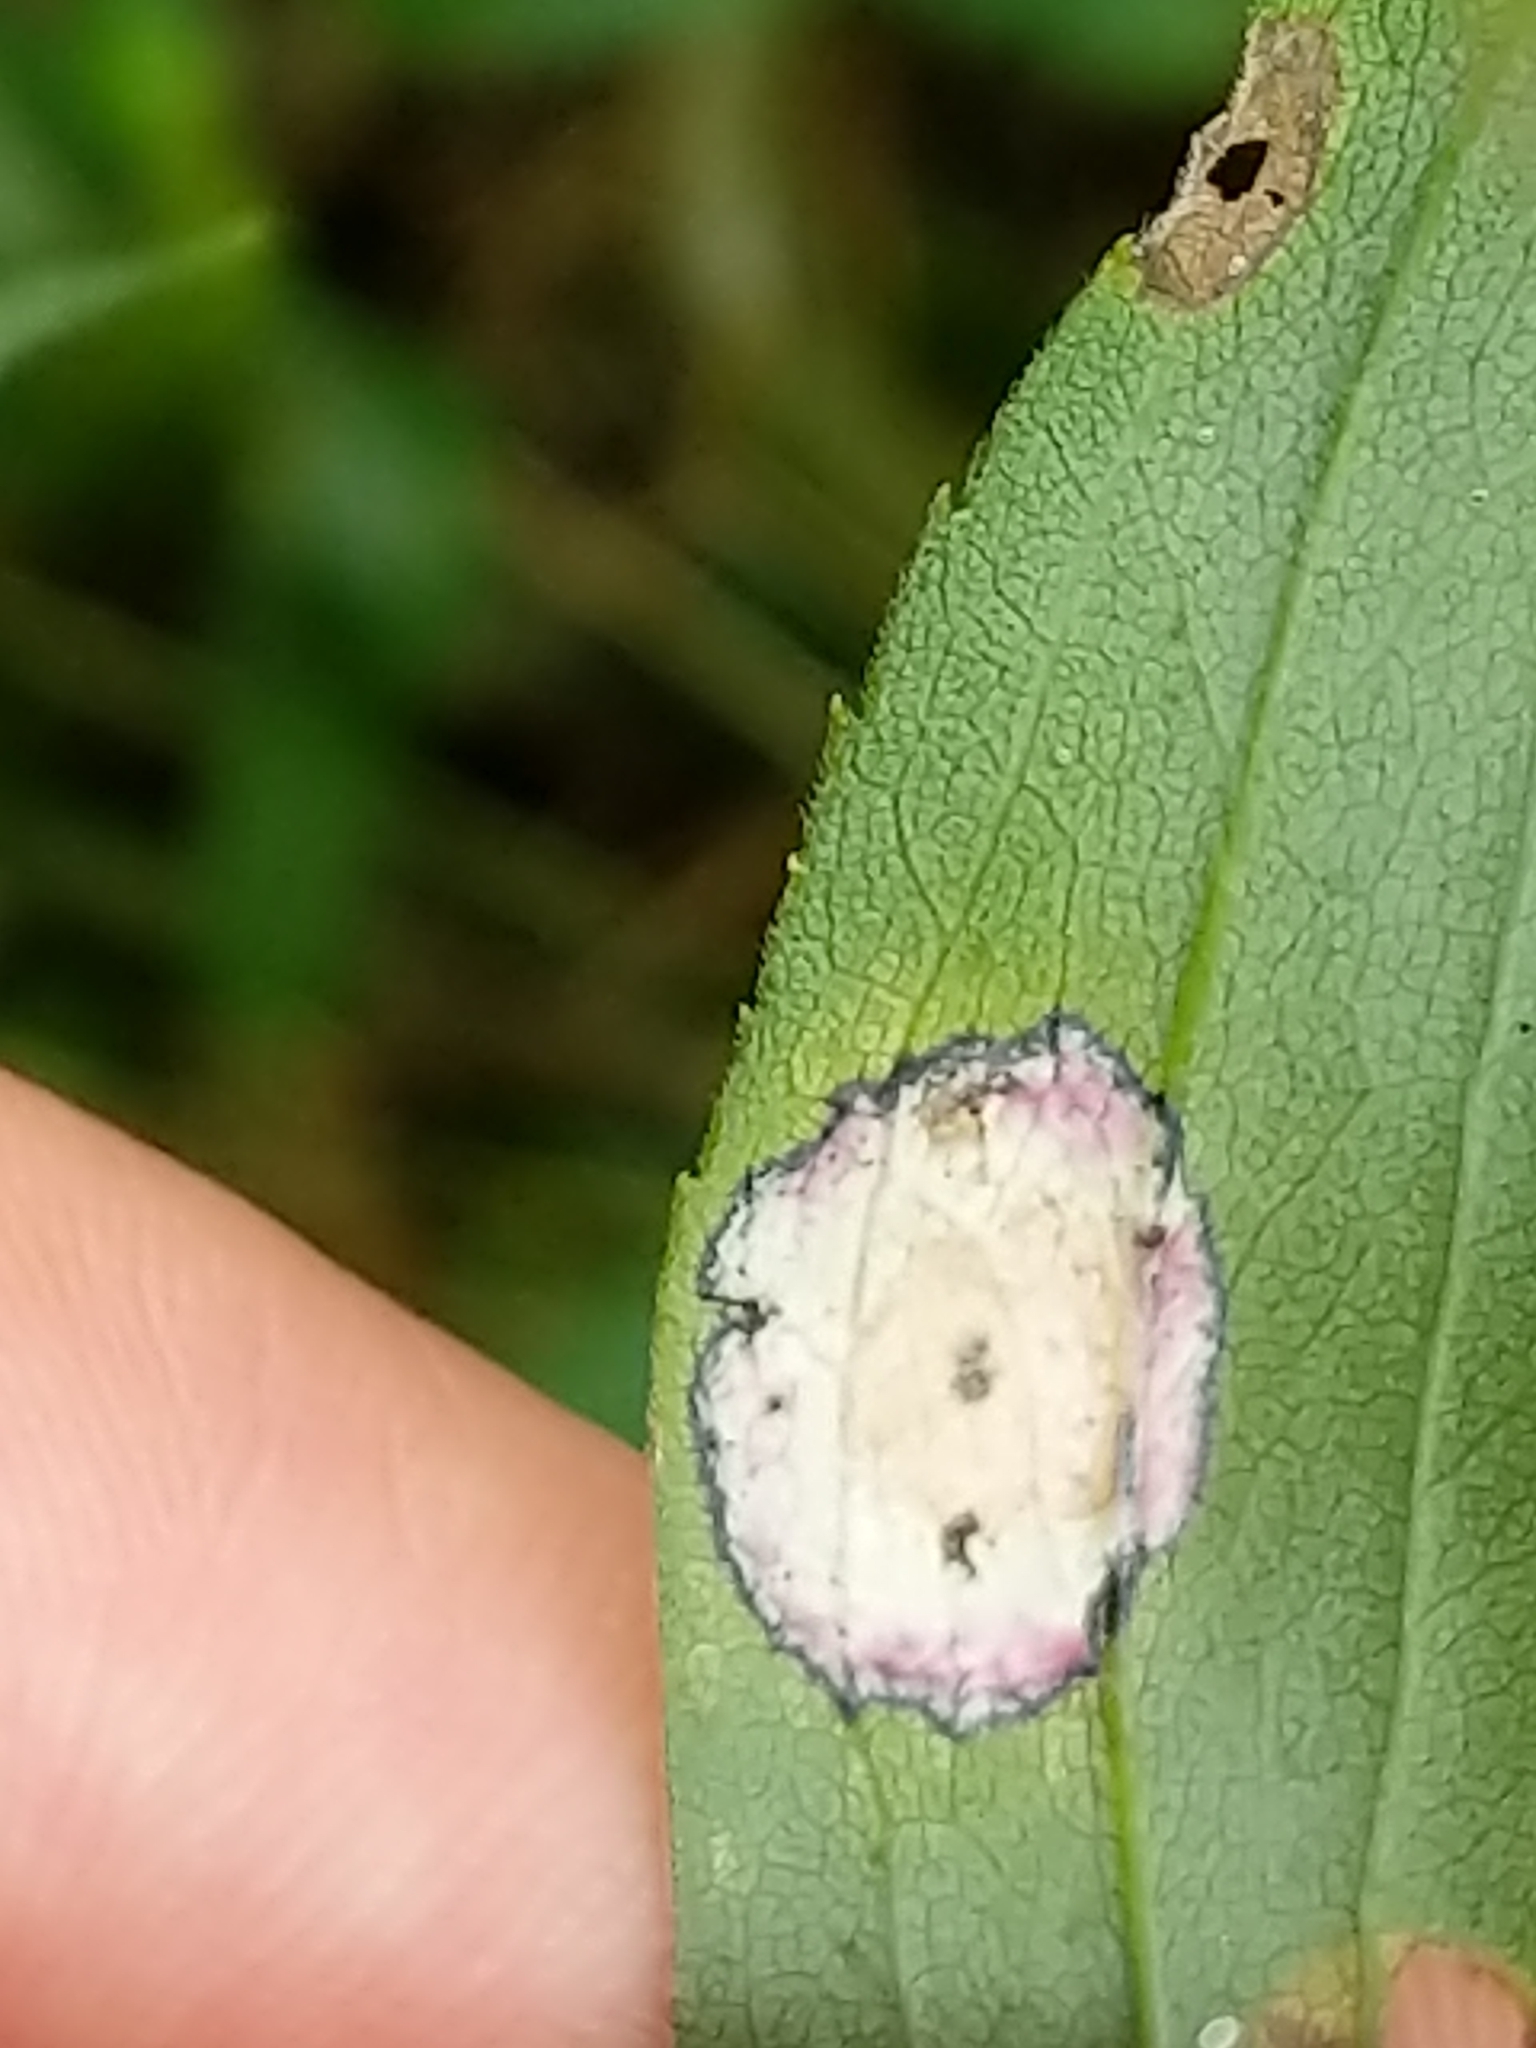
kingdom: Animalia
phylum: Arthropoda
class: Insecta
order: Diptera
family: Cecidomyiidae
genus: Asteromyia
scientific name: Asteromyia carbonifera
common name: Carbonifera goldenrod gall midge
